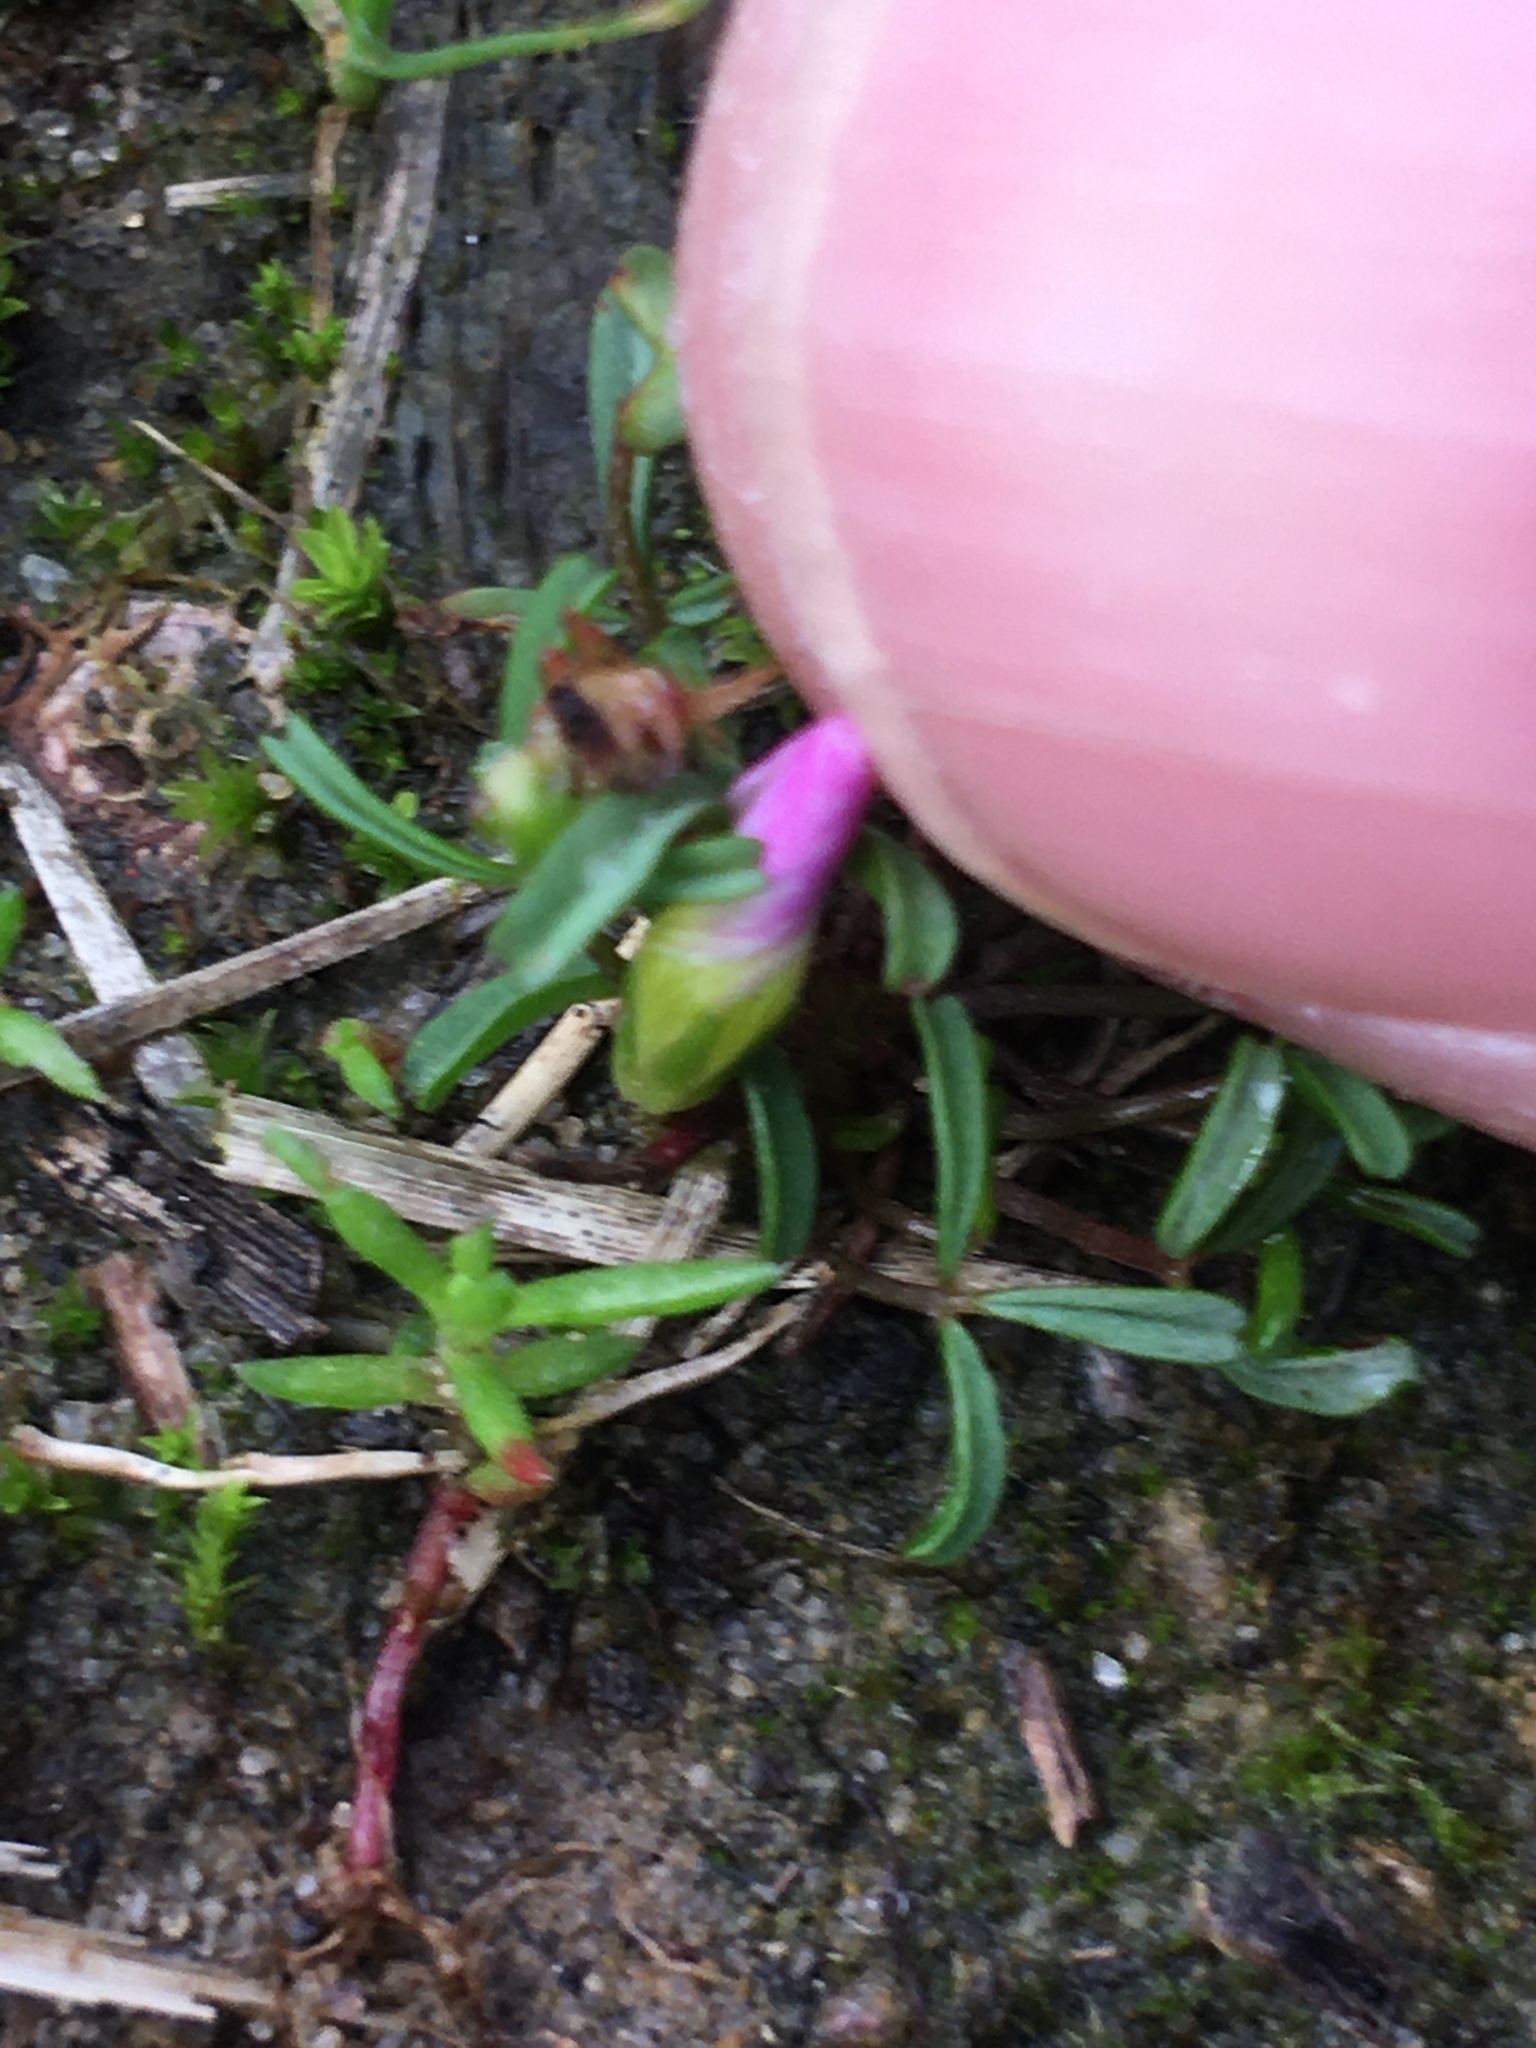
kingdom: Plantae
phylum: Tracheophyta
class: Magnoliopsida
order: Oxalidales
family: Oxalidaceae
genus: Oxalis
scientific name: Oxalis pusilla
